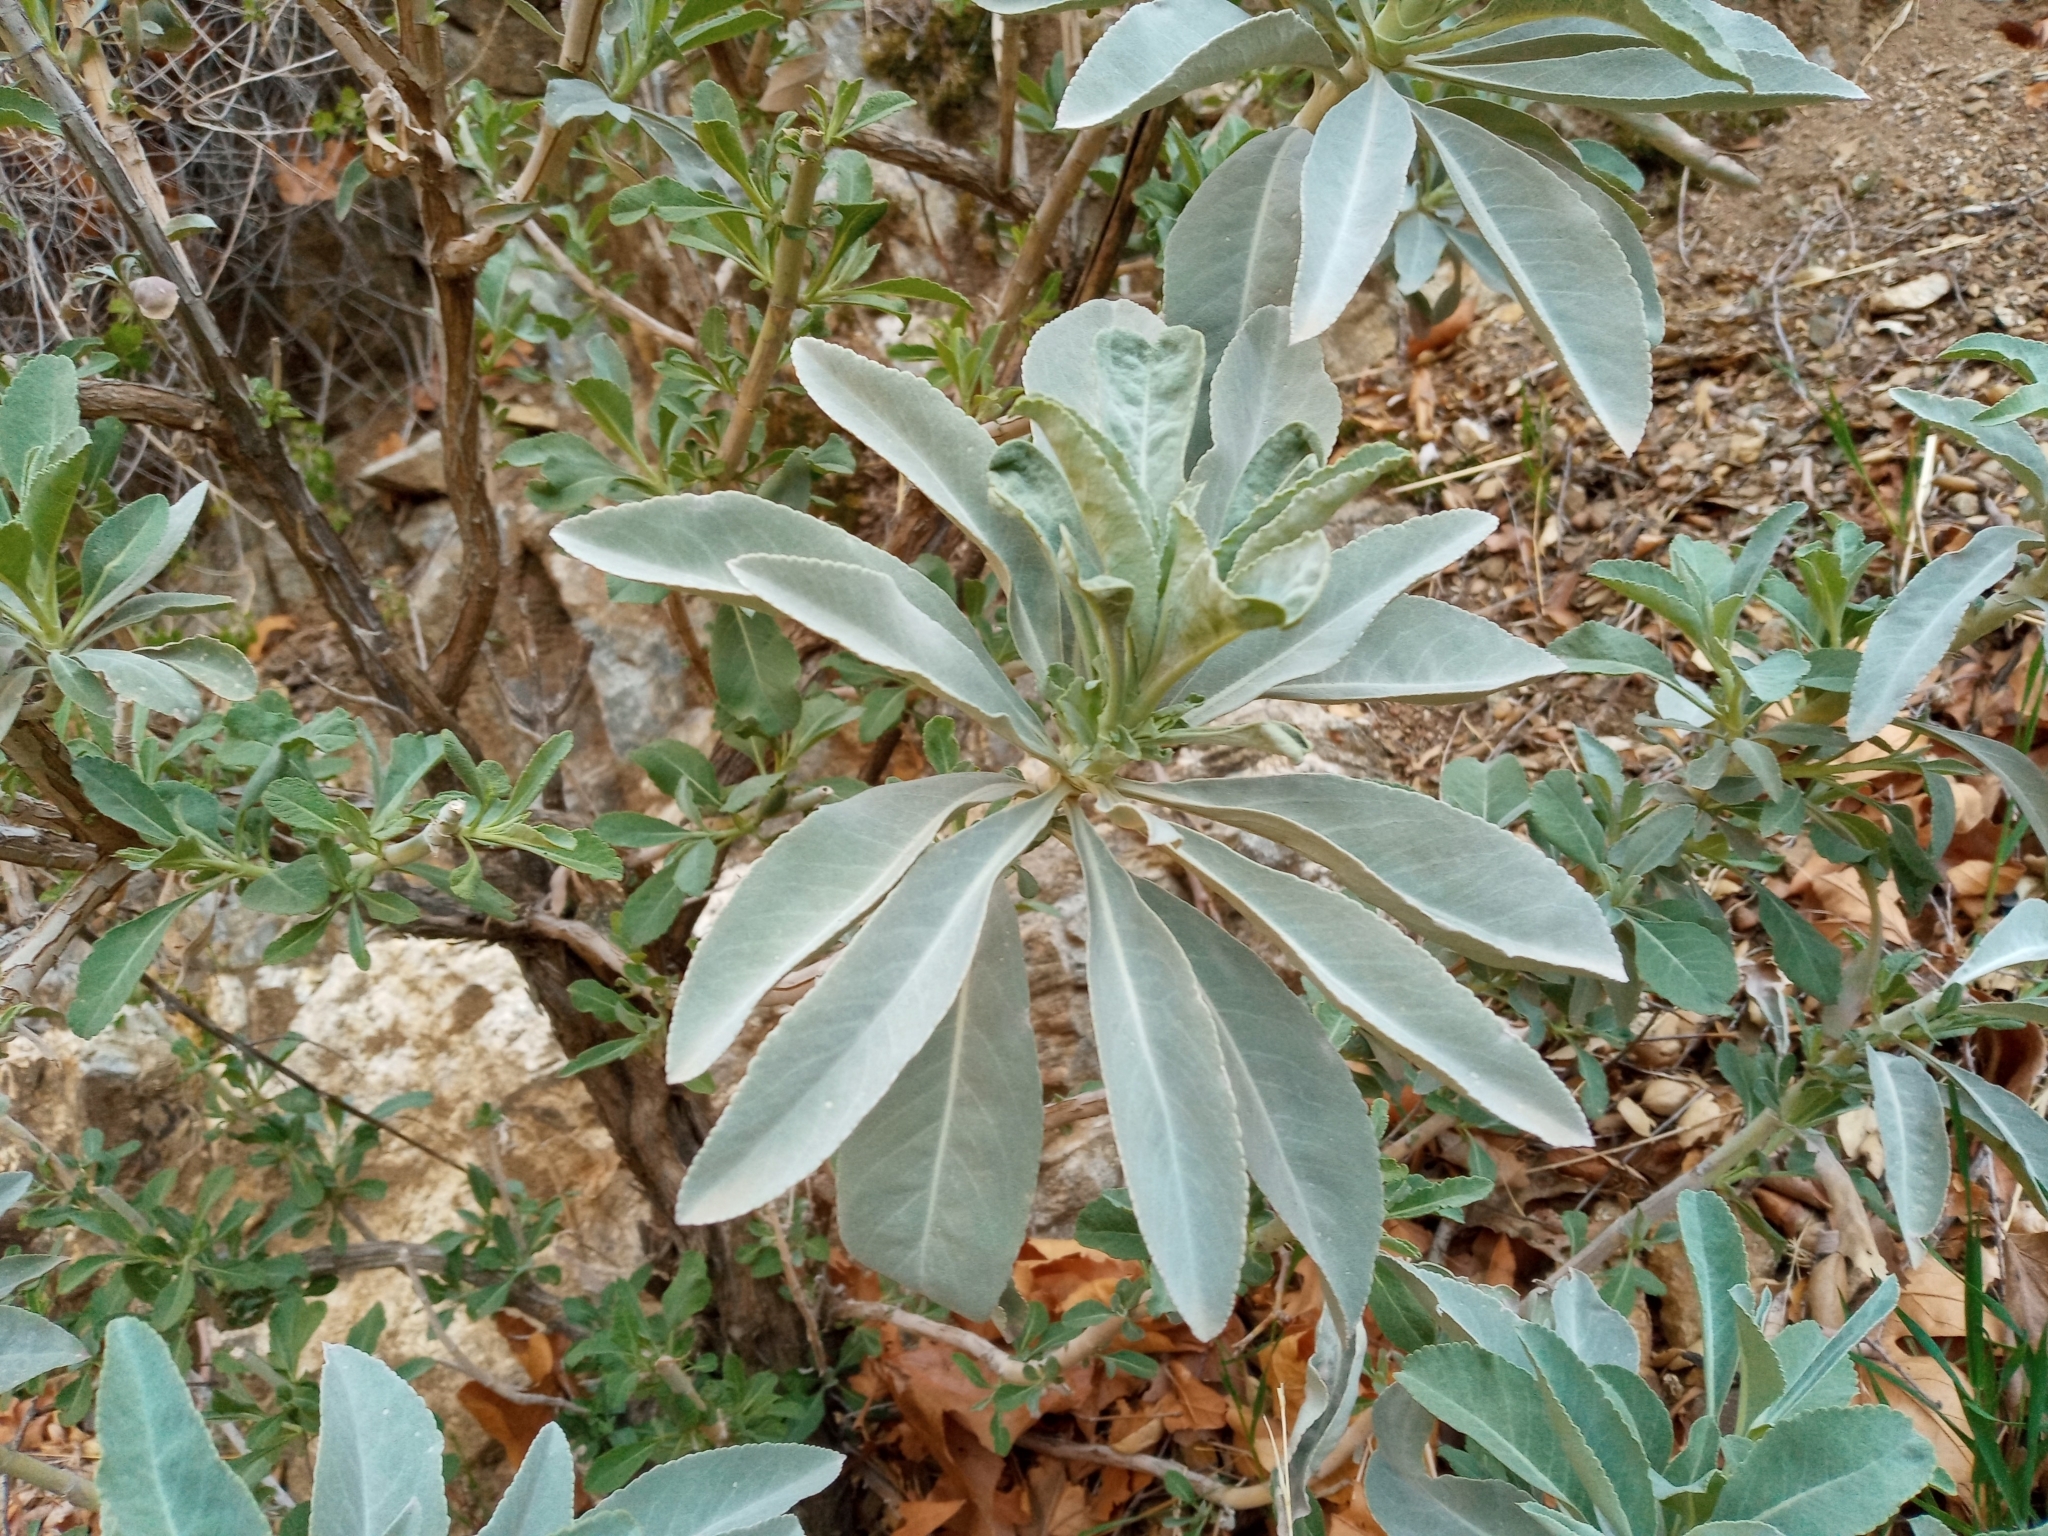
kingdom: Plantae
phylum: Tracheophyta
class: Magnoliopsida
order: Lamiales
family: Lamiaceae
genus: Salvia
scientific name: Salvia apiana
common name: White sage
